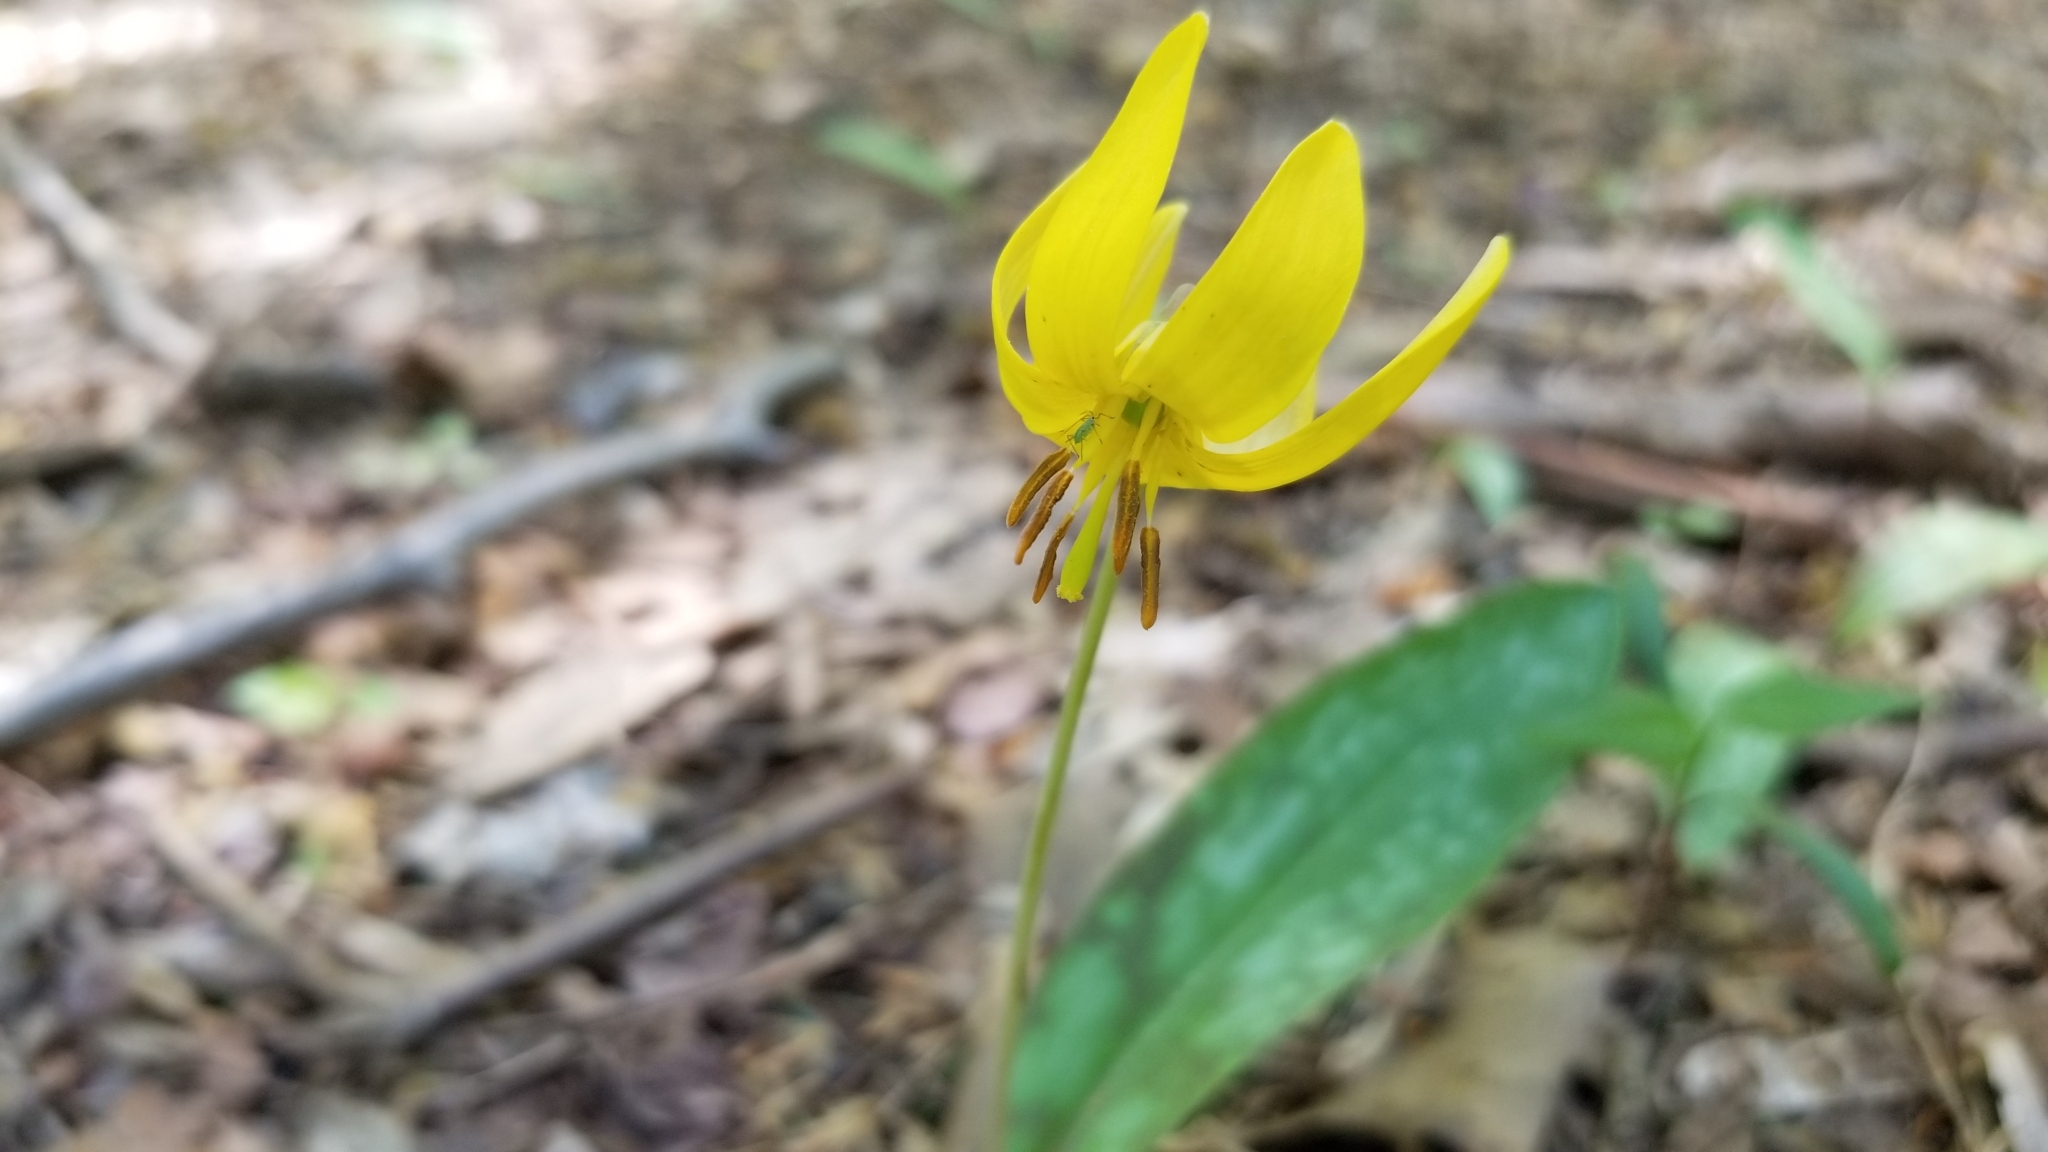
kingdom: Plantae
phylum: Tracheophyta
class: Liliopsida
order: Liliales
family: Liliaceae
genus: Erythronium
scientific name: Erythronium americanum
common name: Yellow adder's-tongue
